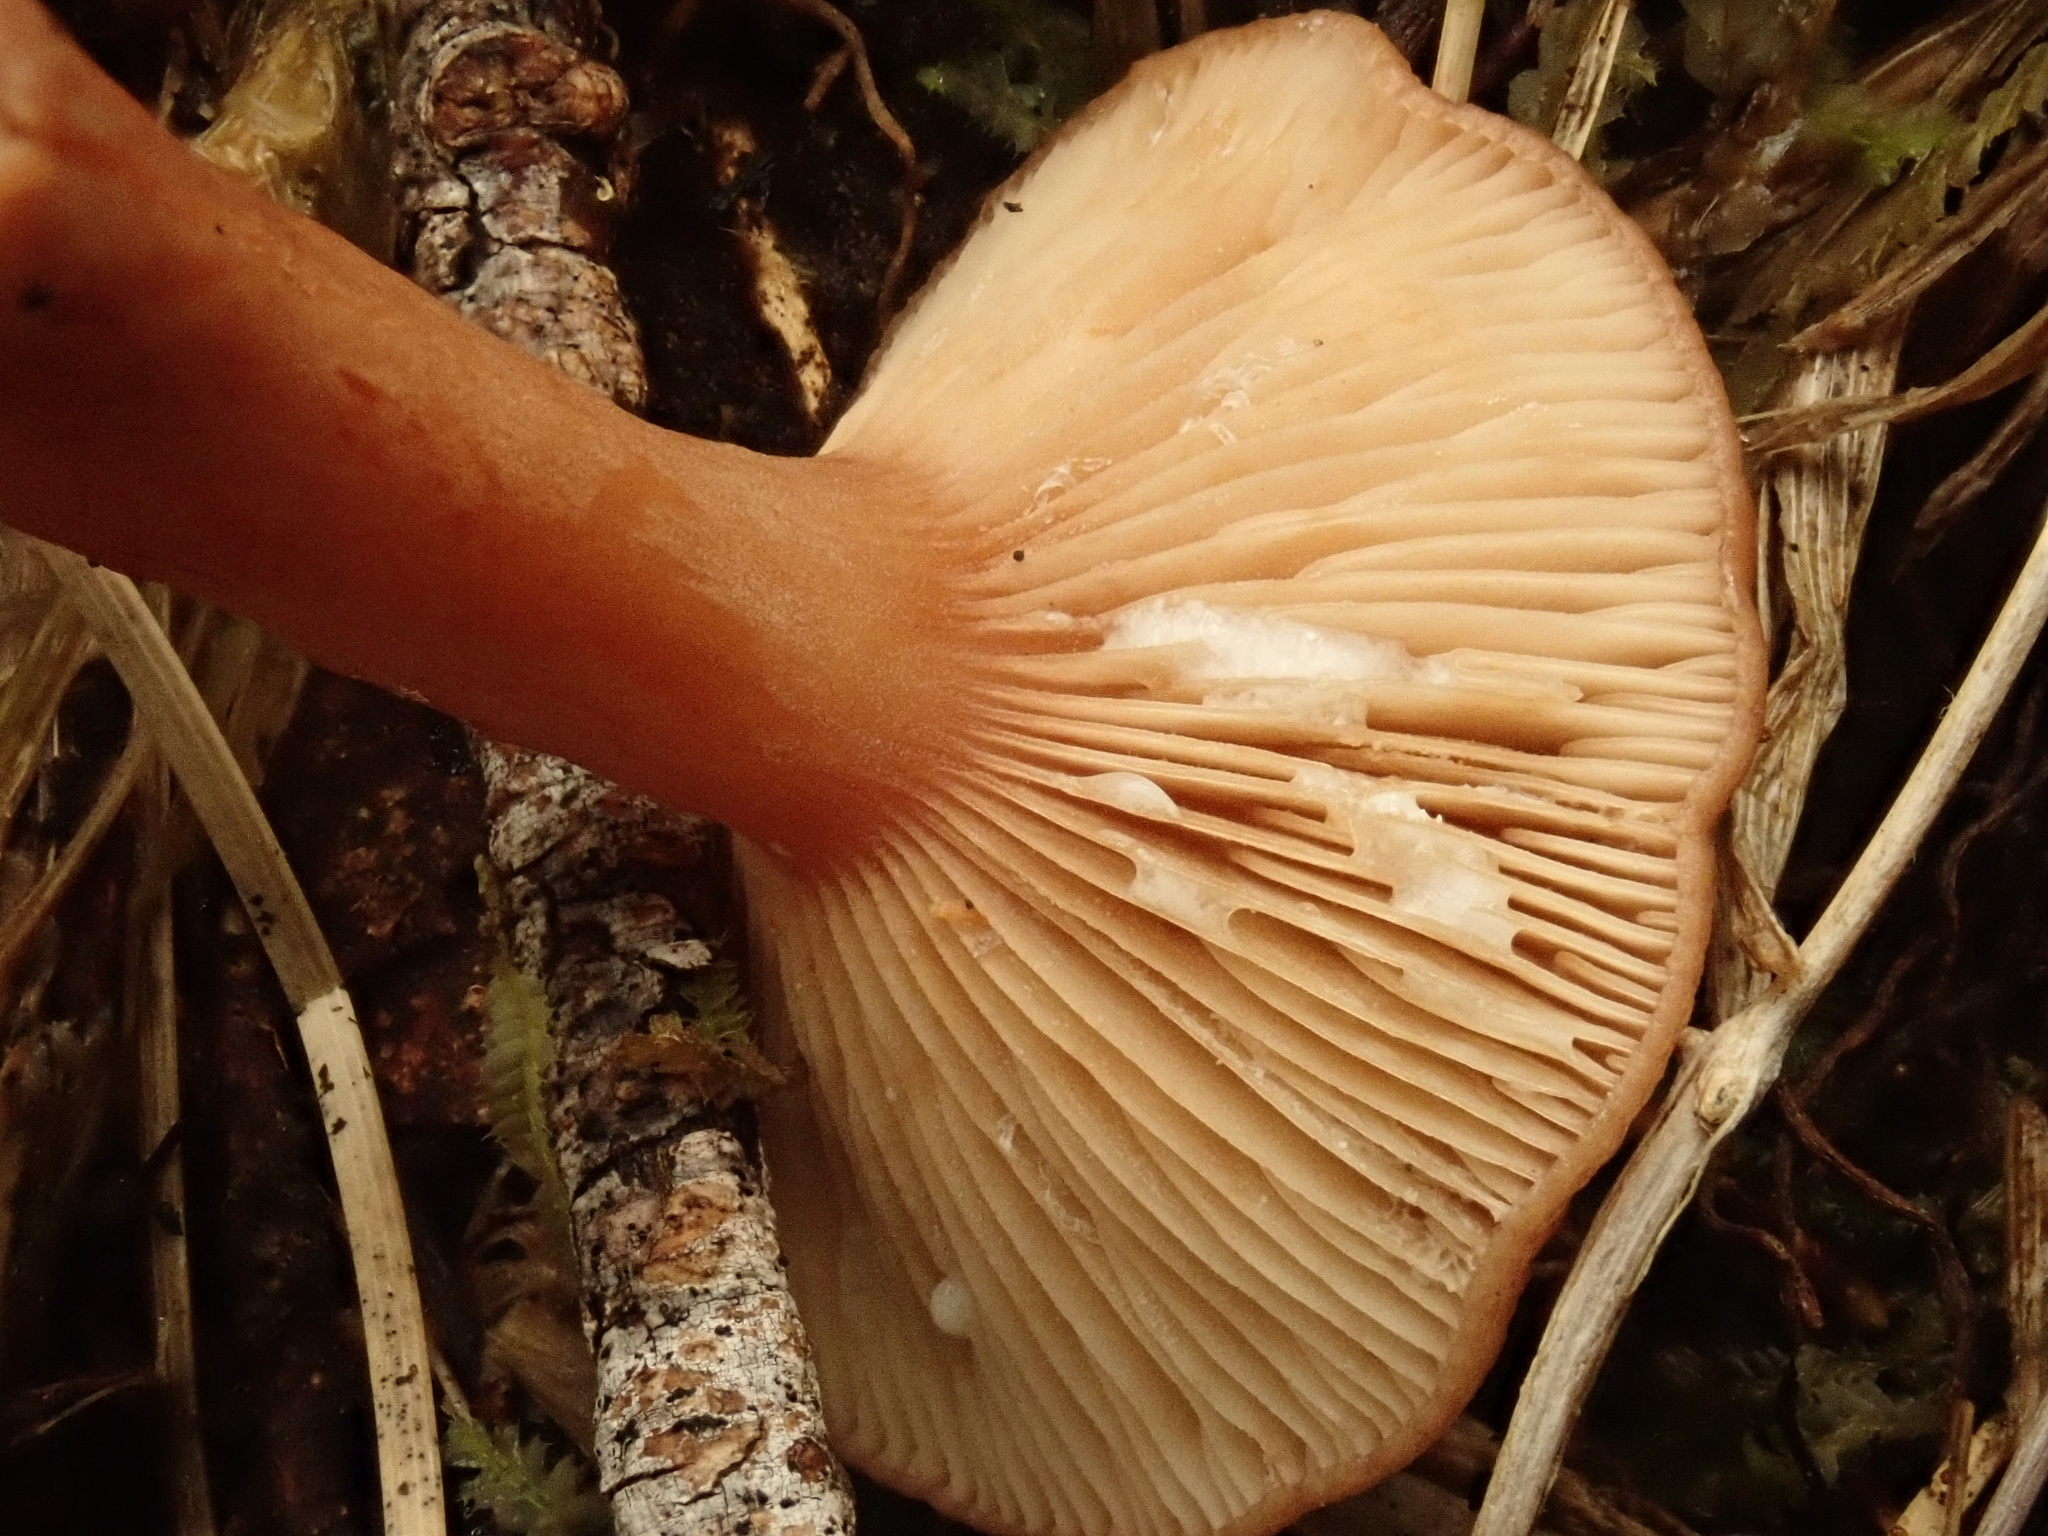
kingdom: Fungi
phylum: Basidiomycota
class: Agaricomycetes
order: Russulales
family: Russulaceae
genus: Lactarius
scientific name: Lactarius eucalypti
